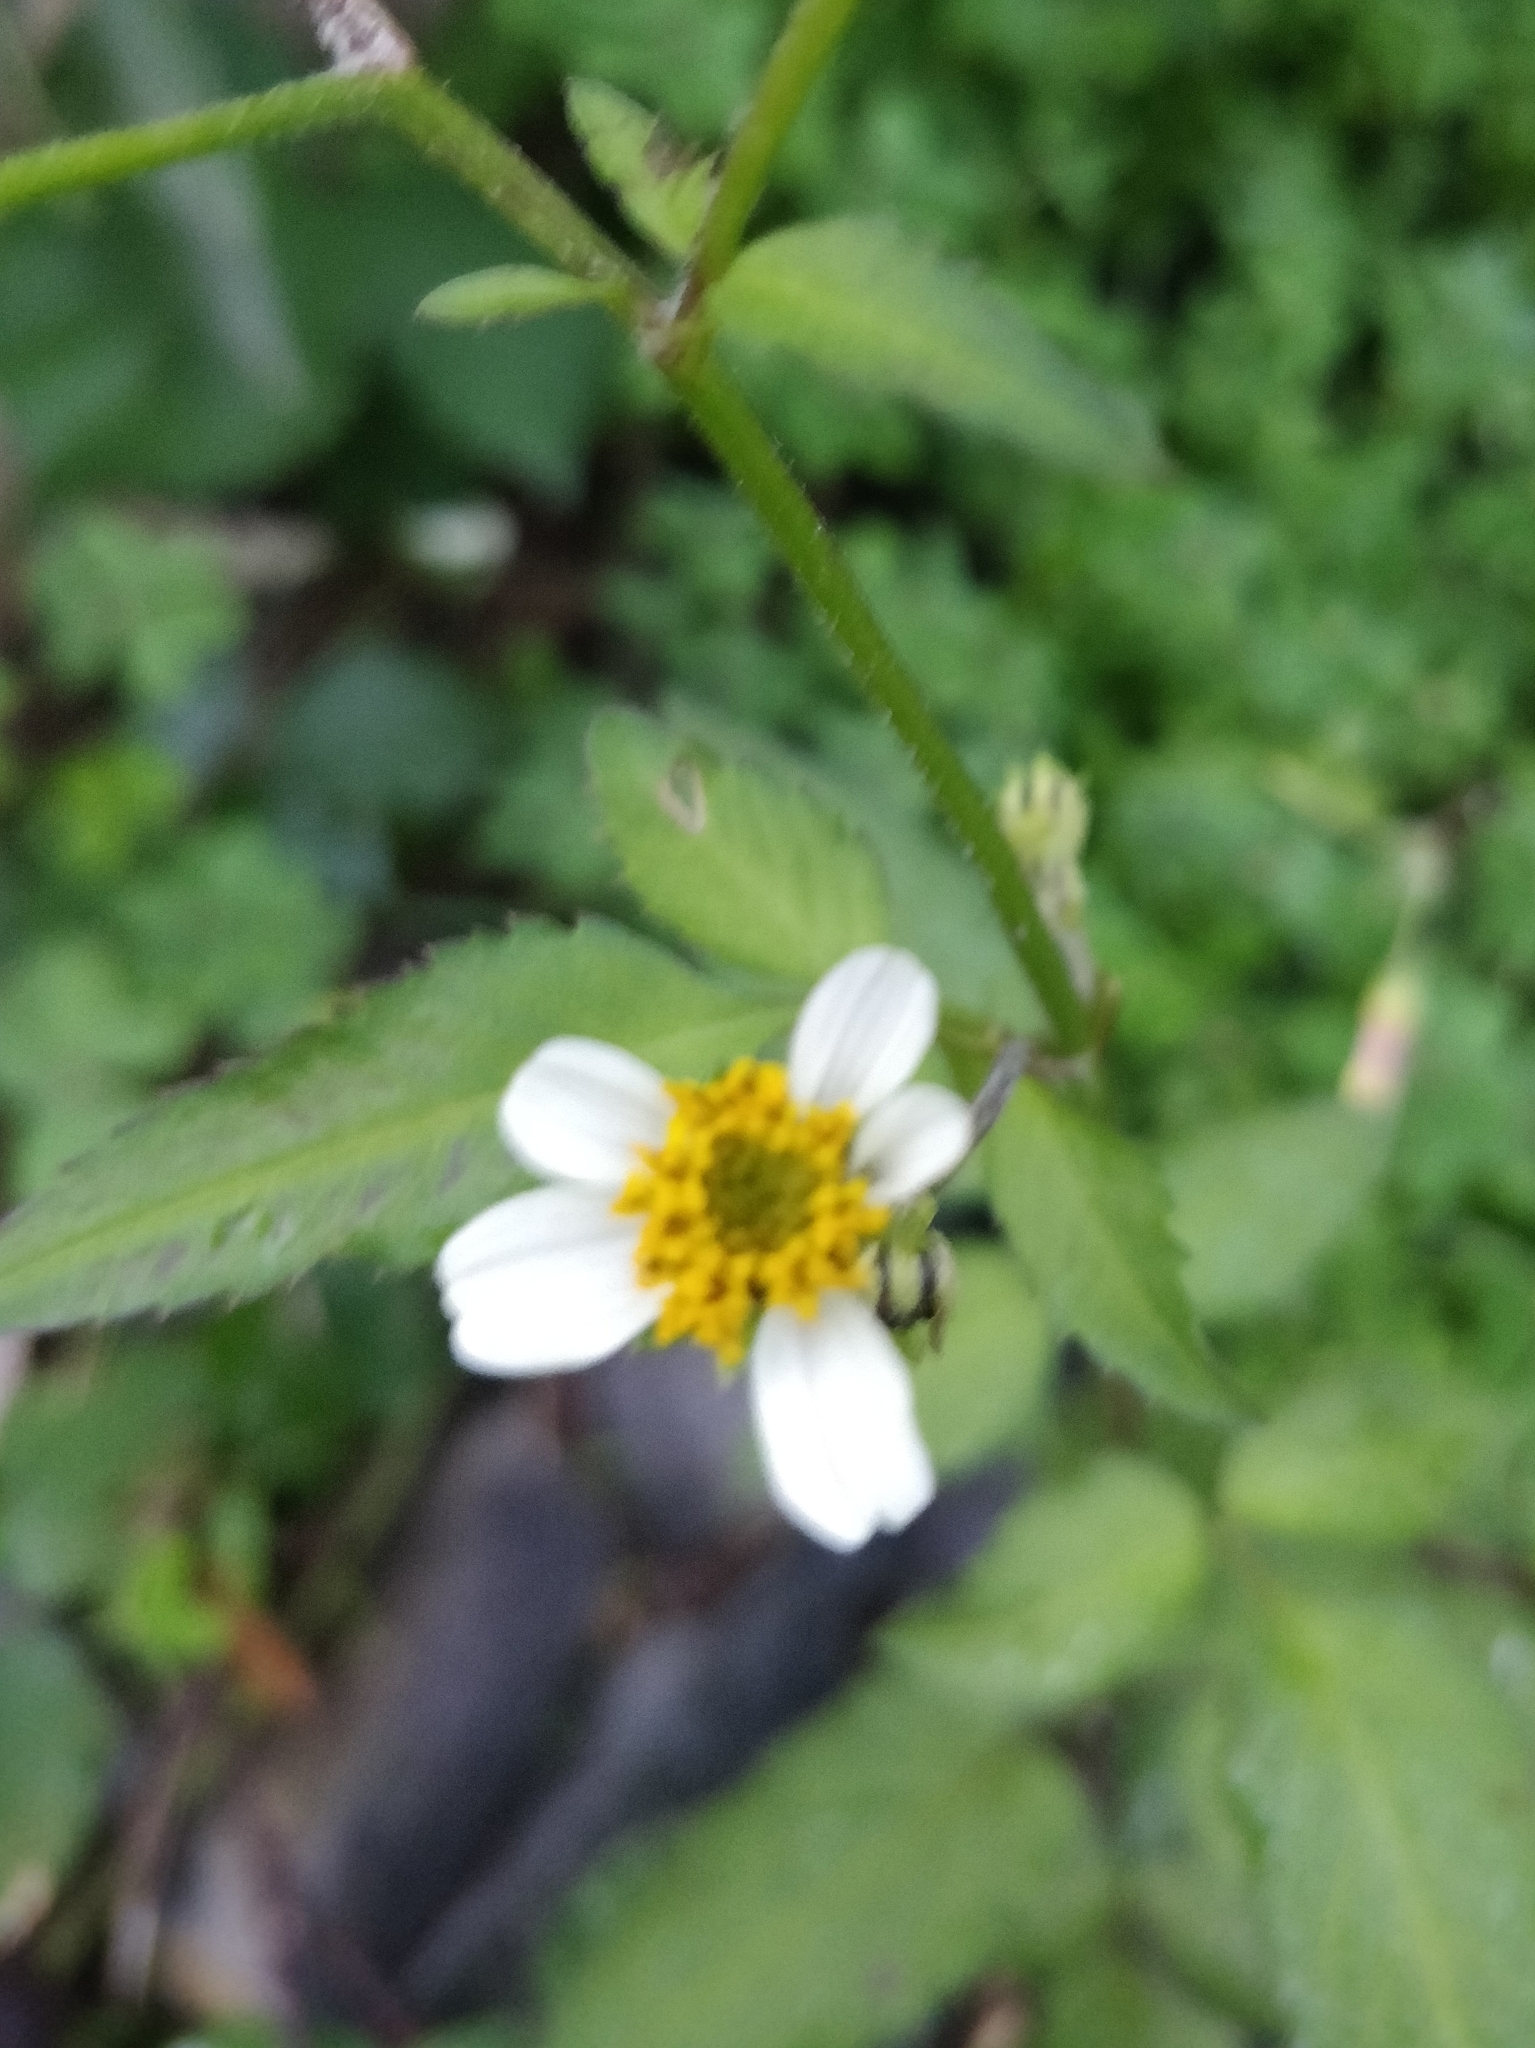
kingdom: Plantae
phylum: Tracheophyta
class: Magnoliopsida
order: Asterales
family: Asteraceae
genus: Bidens
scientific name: Bidens pilosa
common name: Black-jack
